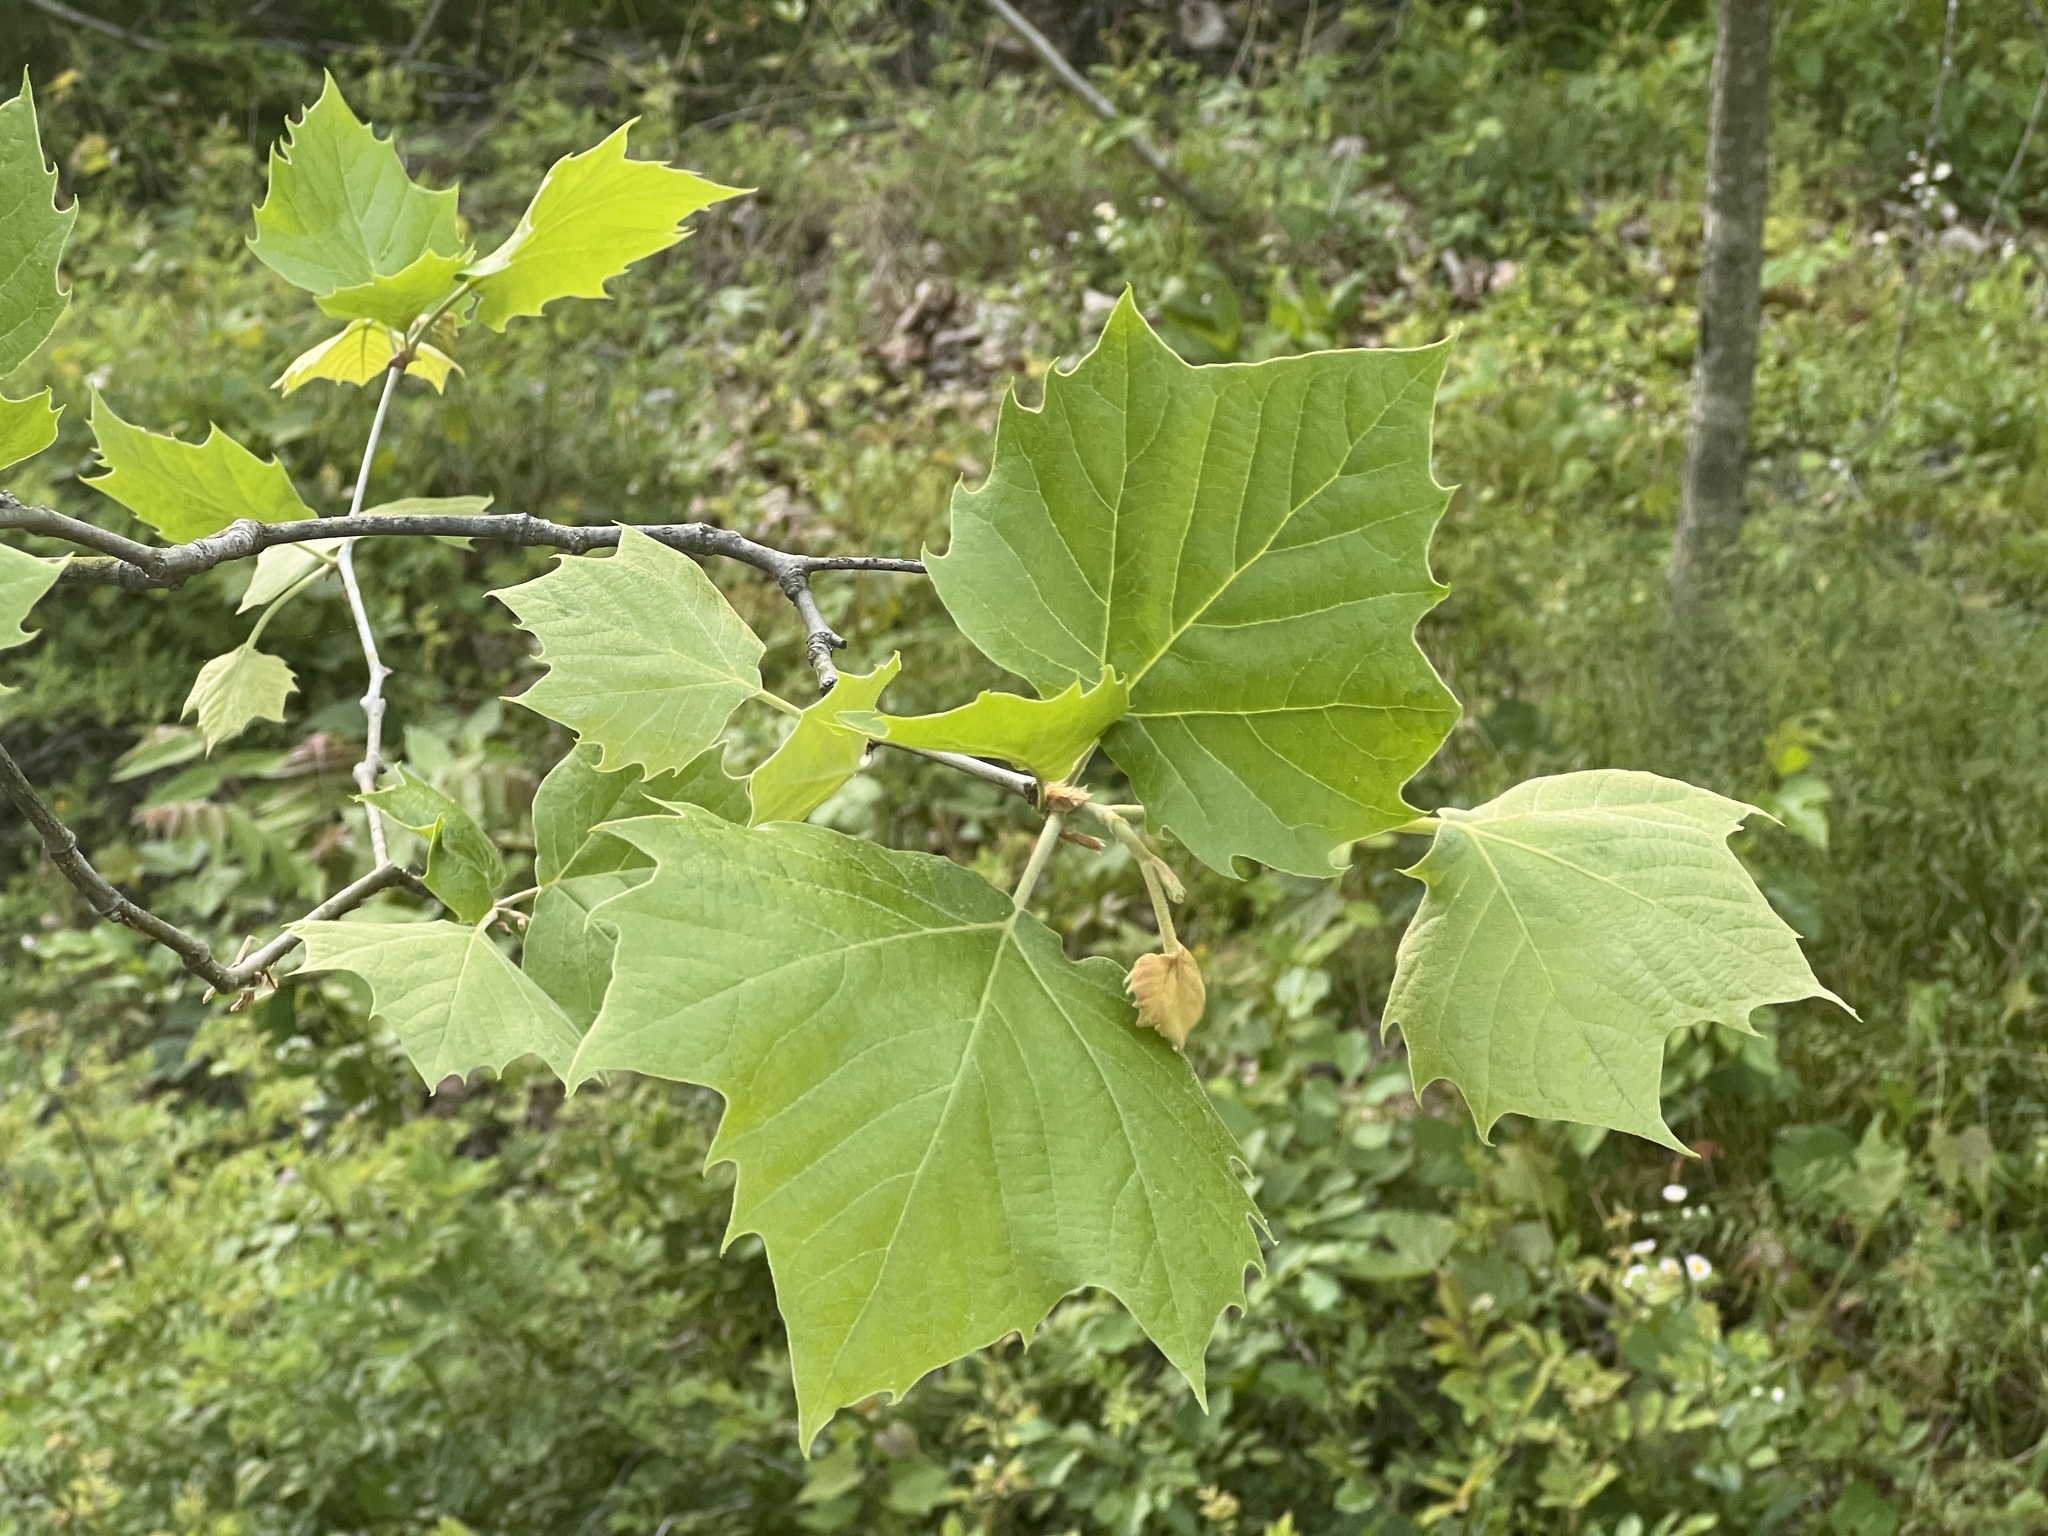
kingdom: Plantae
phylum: Tracheophyta
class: Magnoliopsida
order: Proteales
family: Platanaceae
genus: Platanus
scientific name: Platanus occidentalis
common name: American sycamore
